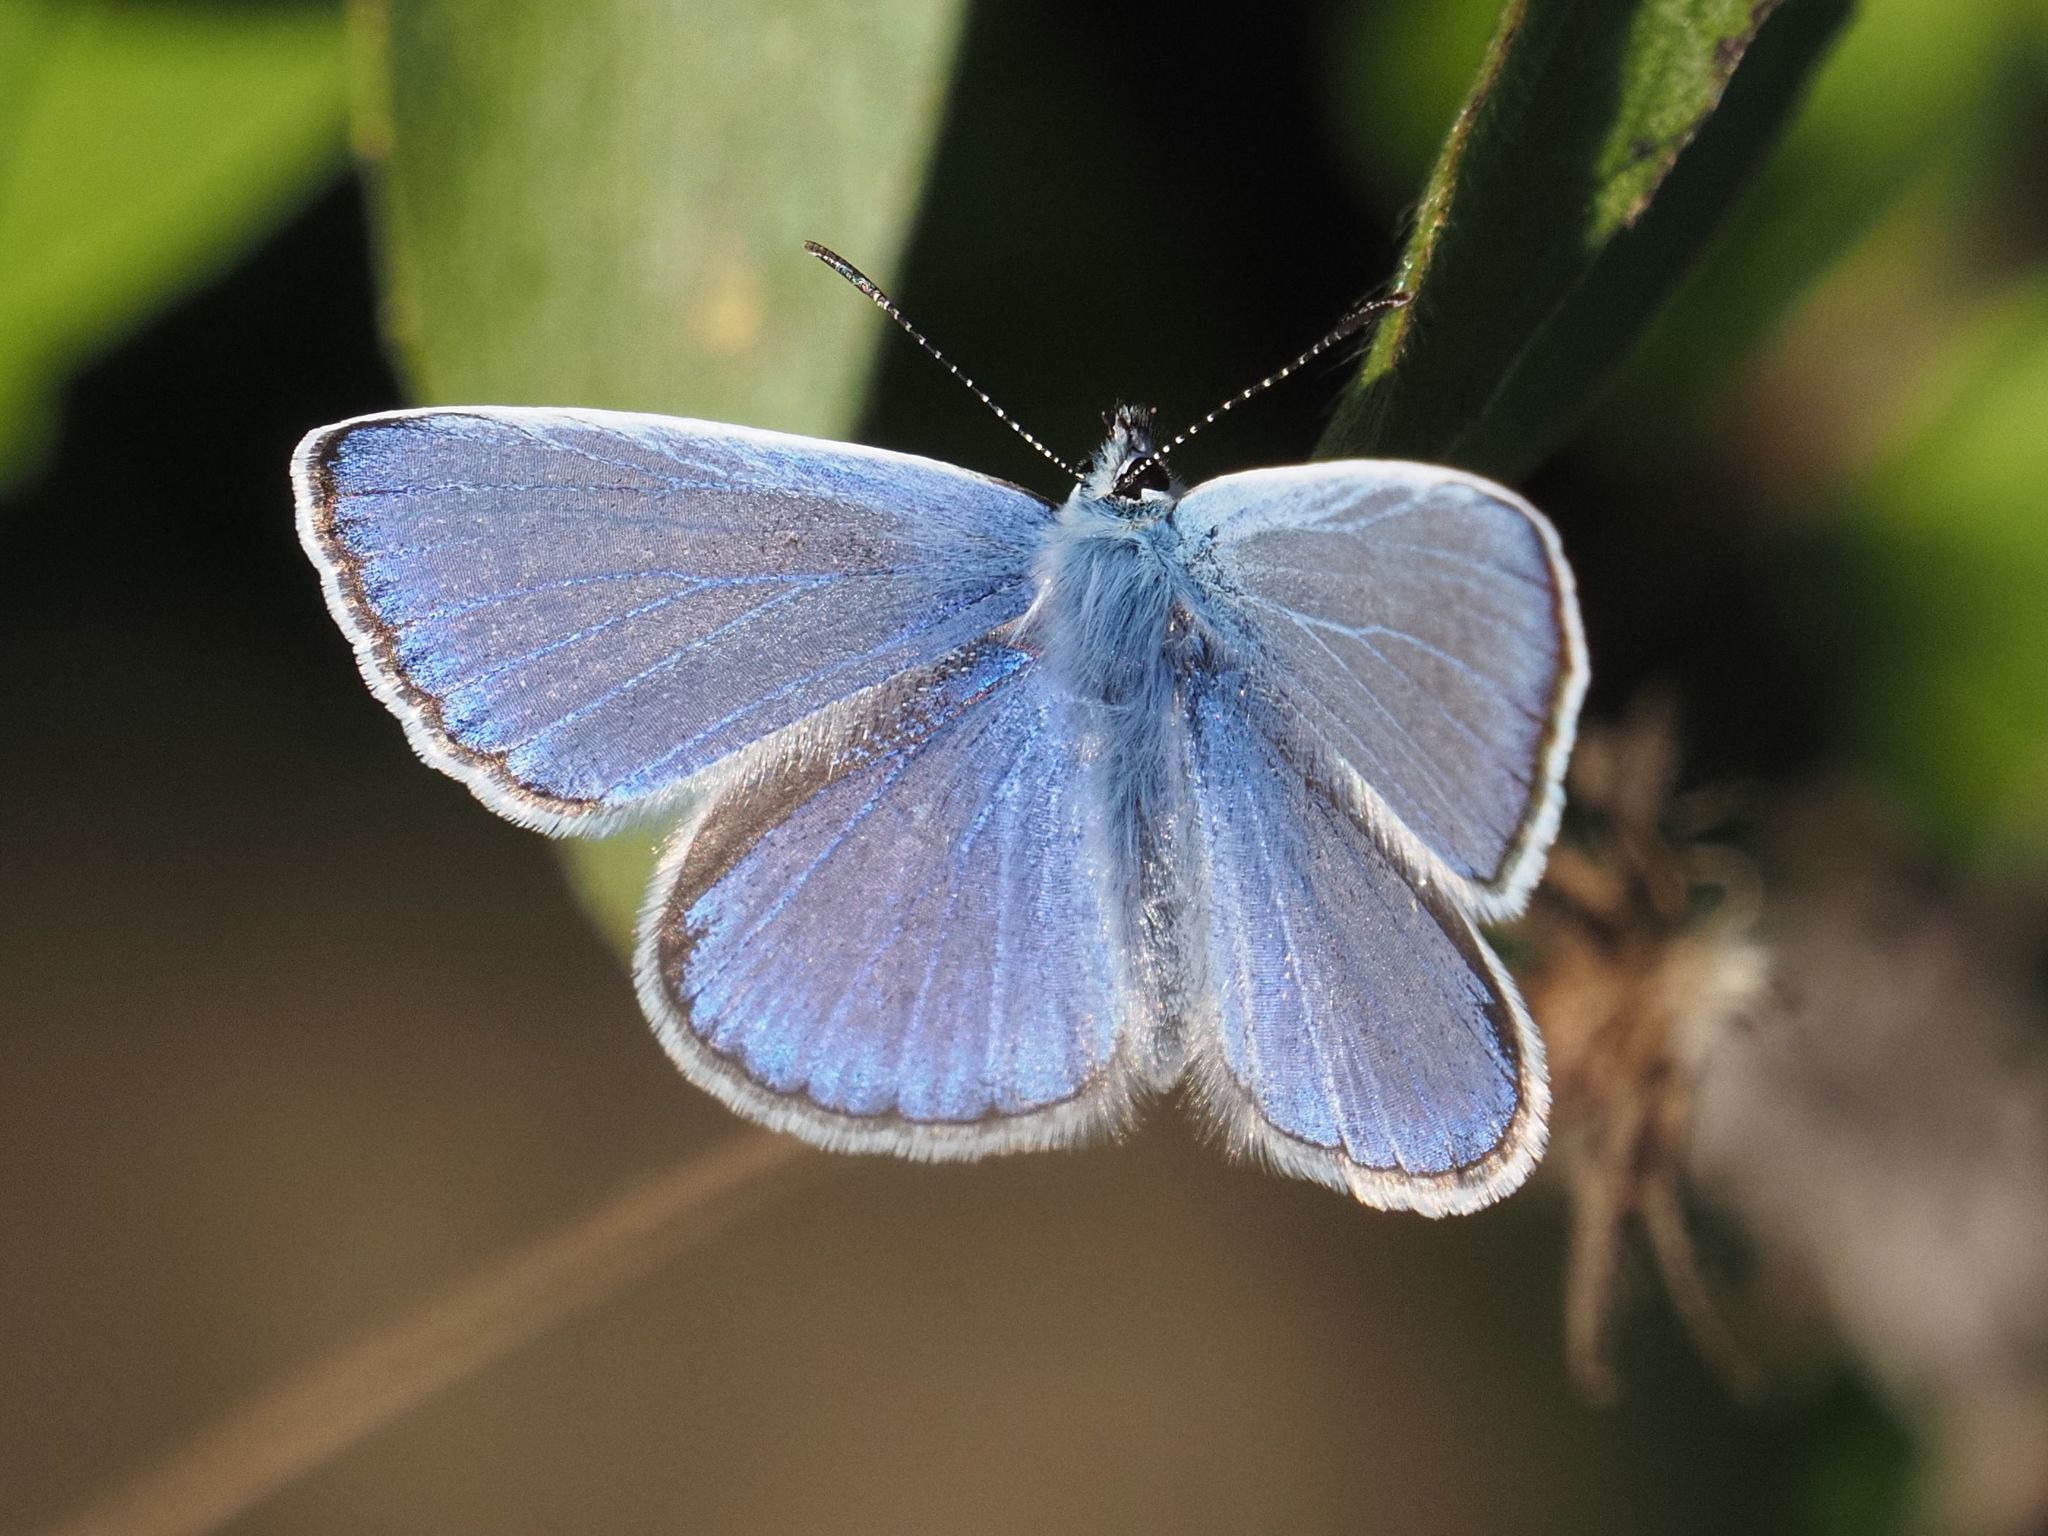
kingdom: Animalia
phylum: Arthropoda
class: Insecta
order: Lepidoptera
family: Lycaenidae
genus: Polyommatus
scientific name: Polyommatus icarus
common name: Common blue
